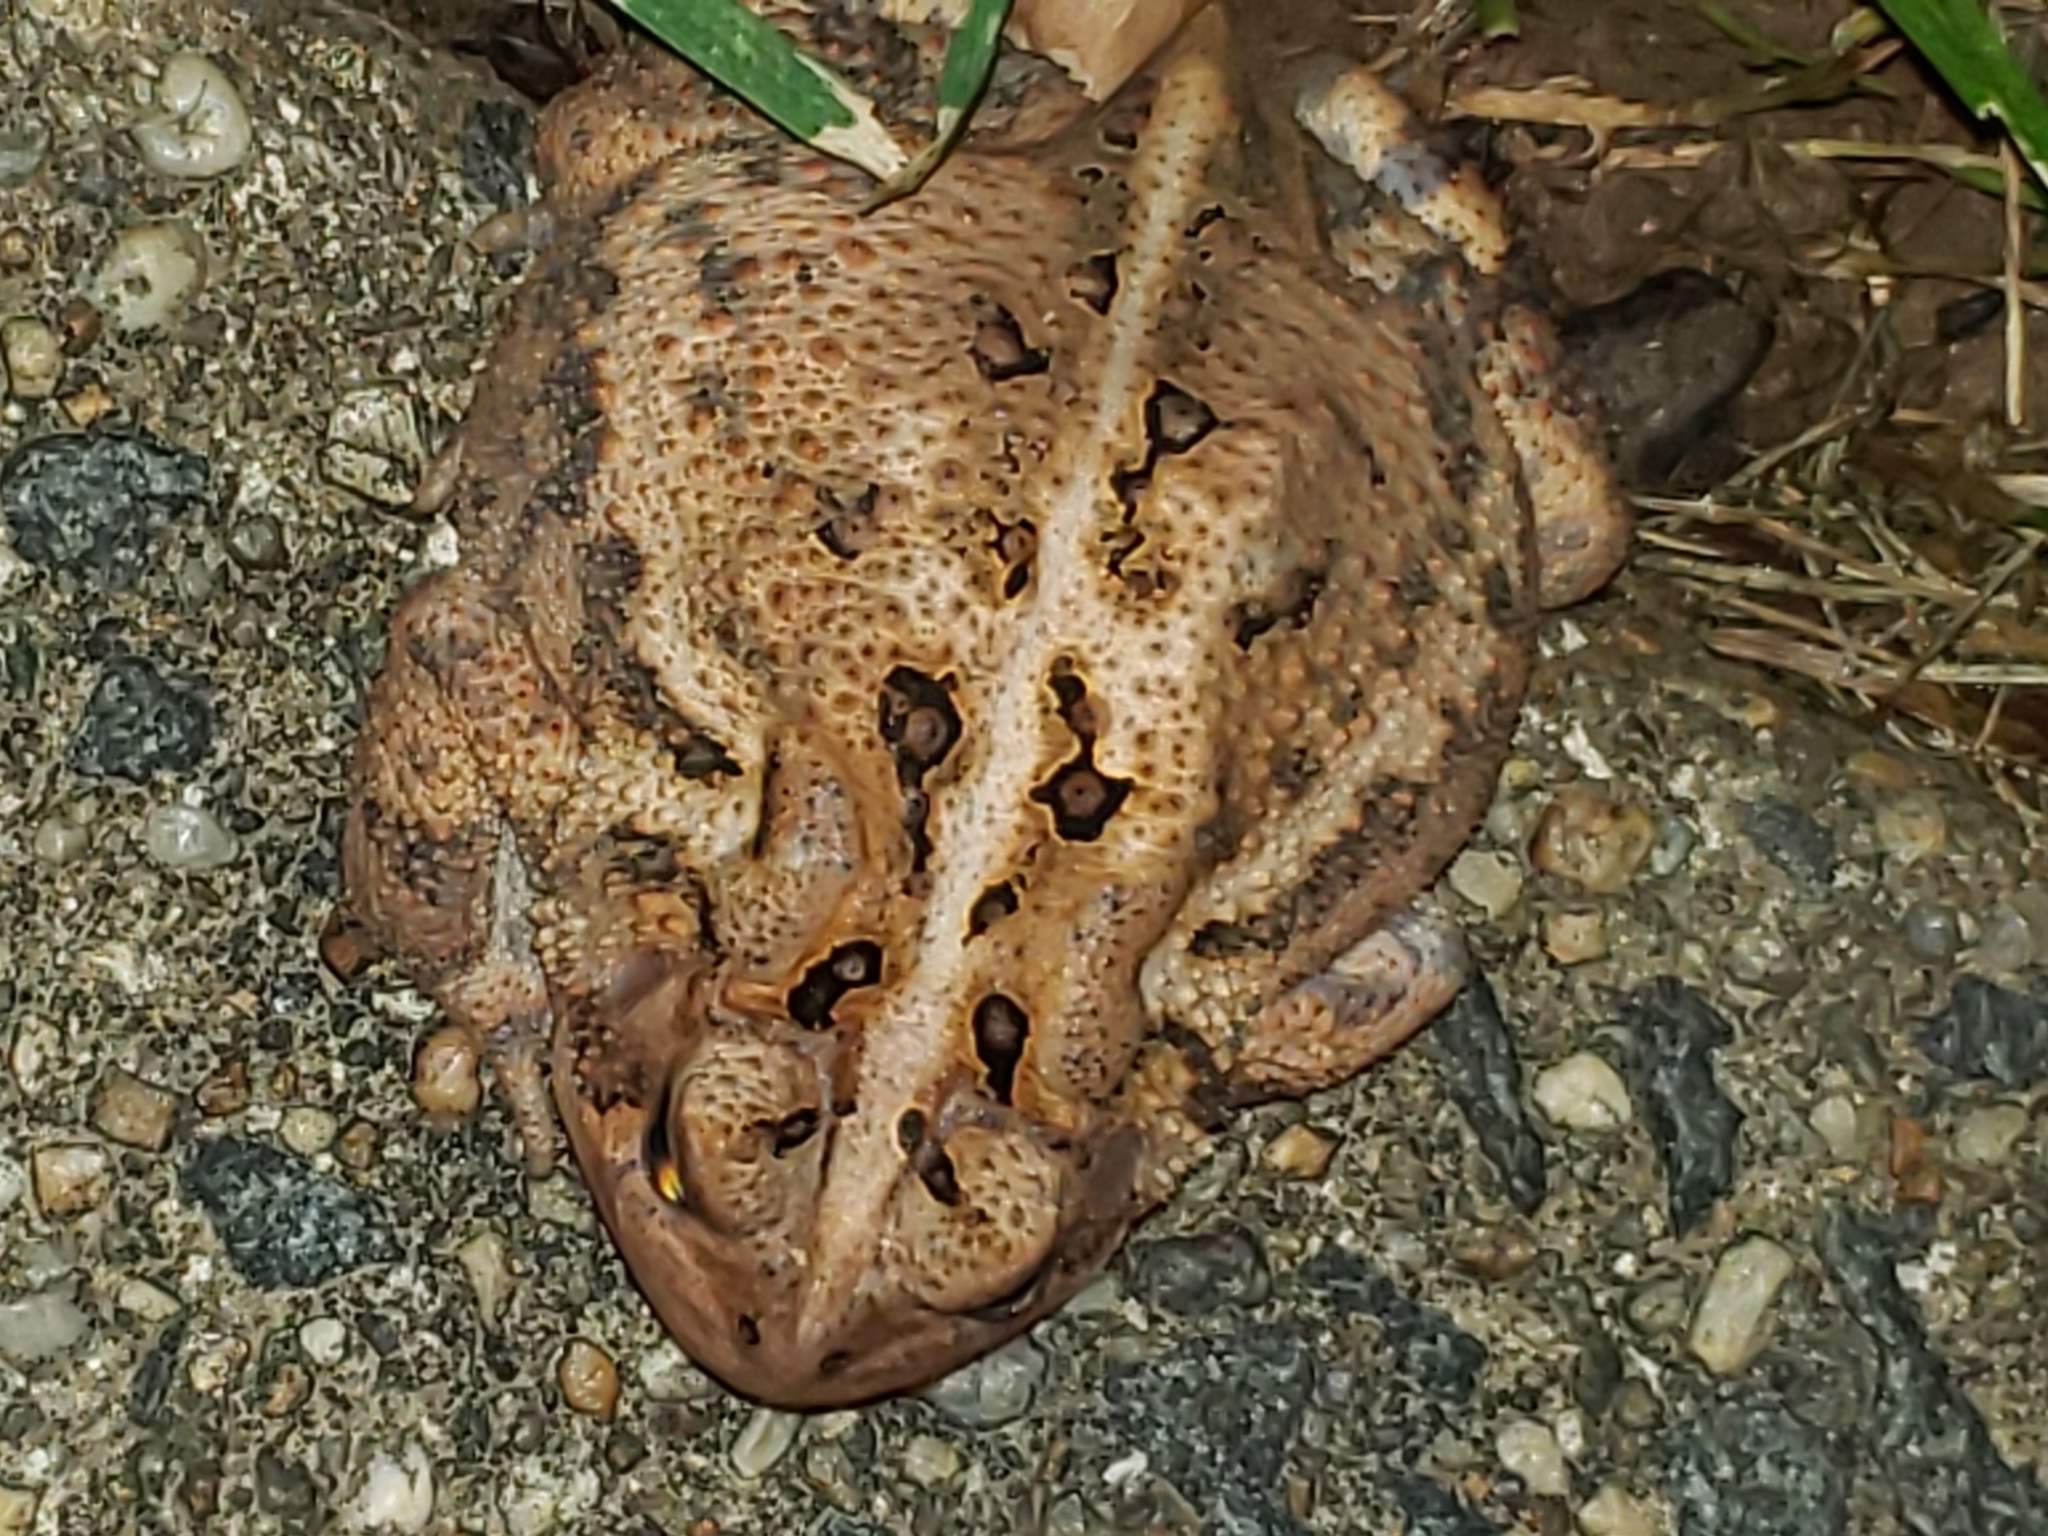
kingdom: Animalia
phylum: Chordata
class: Amphibia
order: Anura
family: Bufonidae
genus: Anaxyrus
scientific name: Anaxyrus americanus
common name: American toad
